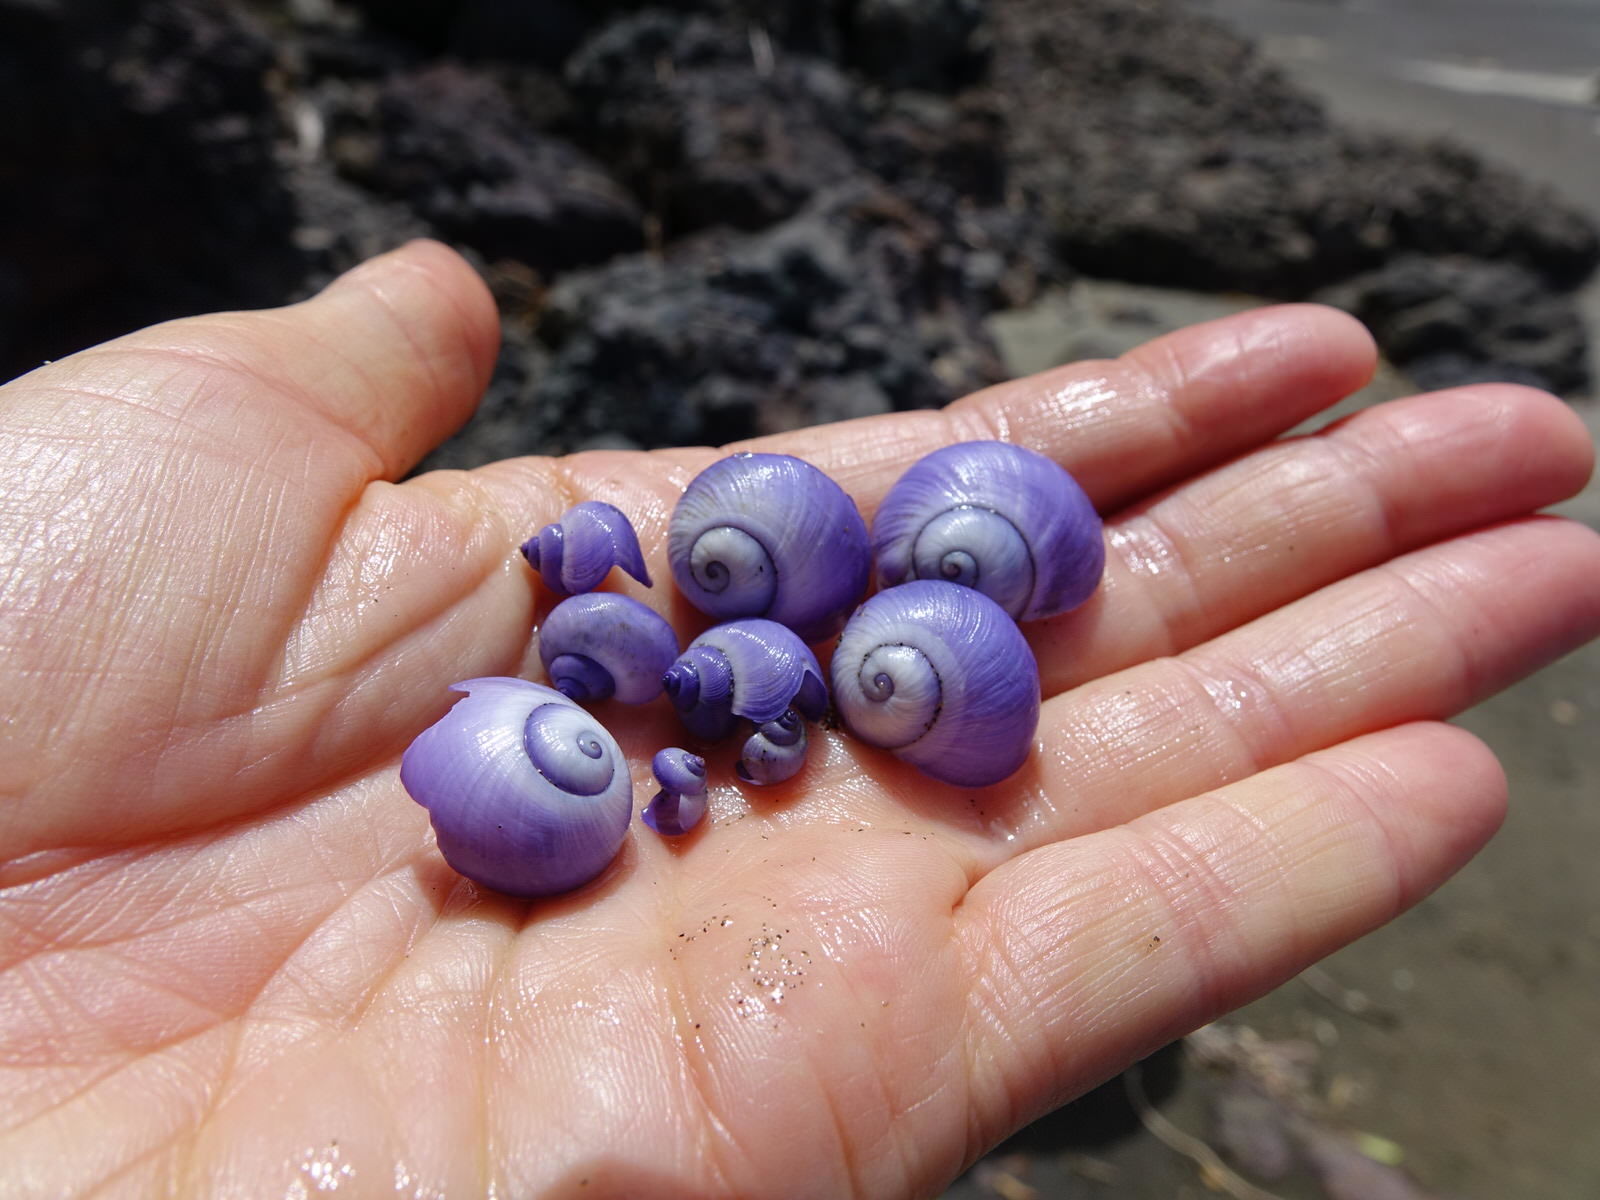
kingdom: Animalia
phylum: Mollusca
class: Gastropoda
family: Epitoniidae
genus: Janthina
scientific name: Janthina exigua
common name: Dwarf janthina
